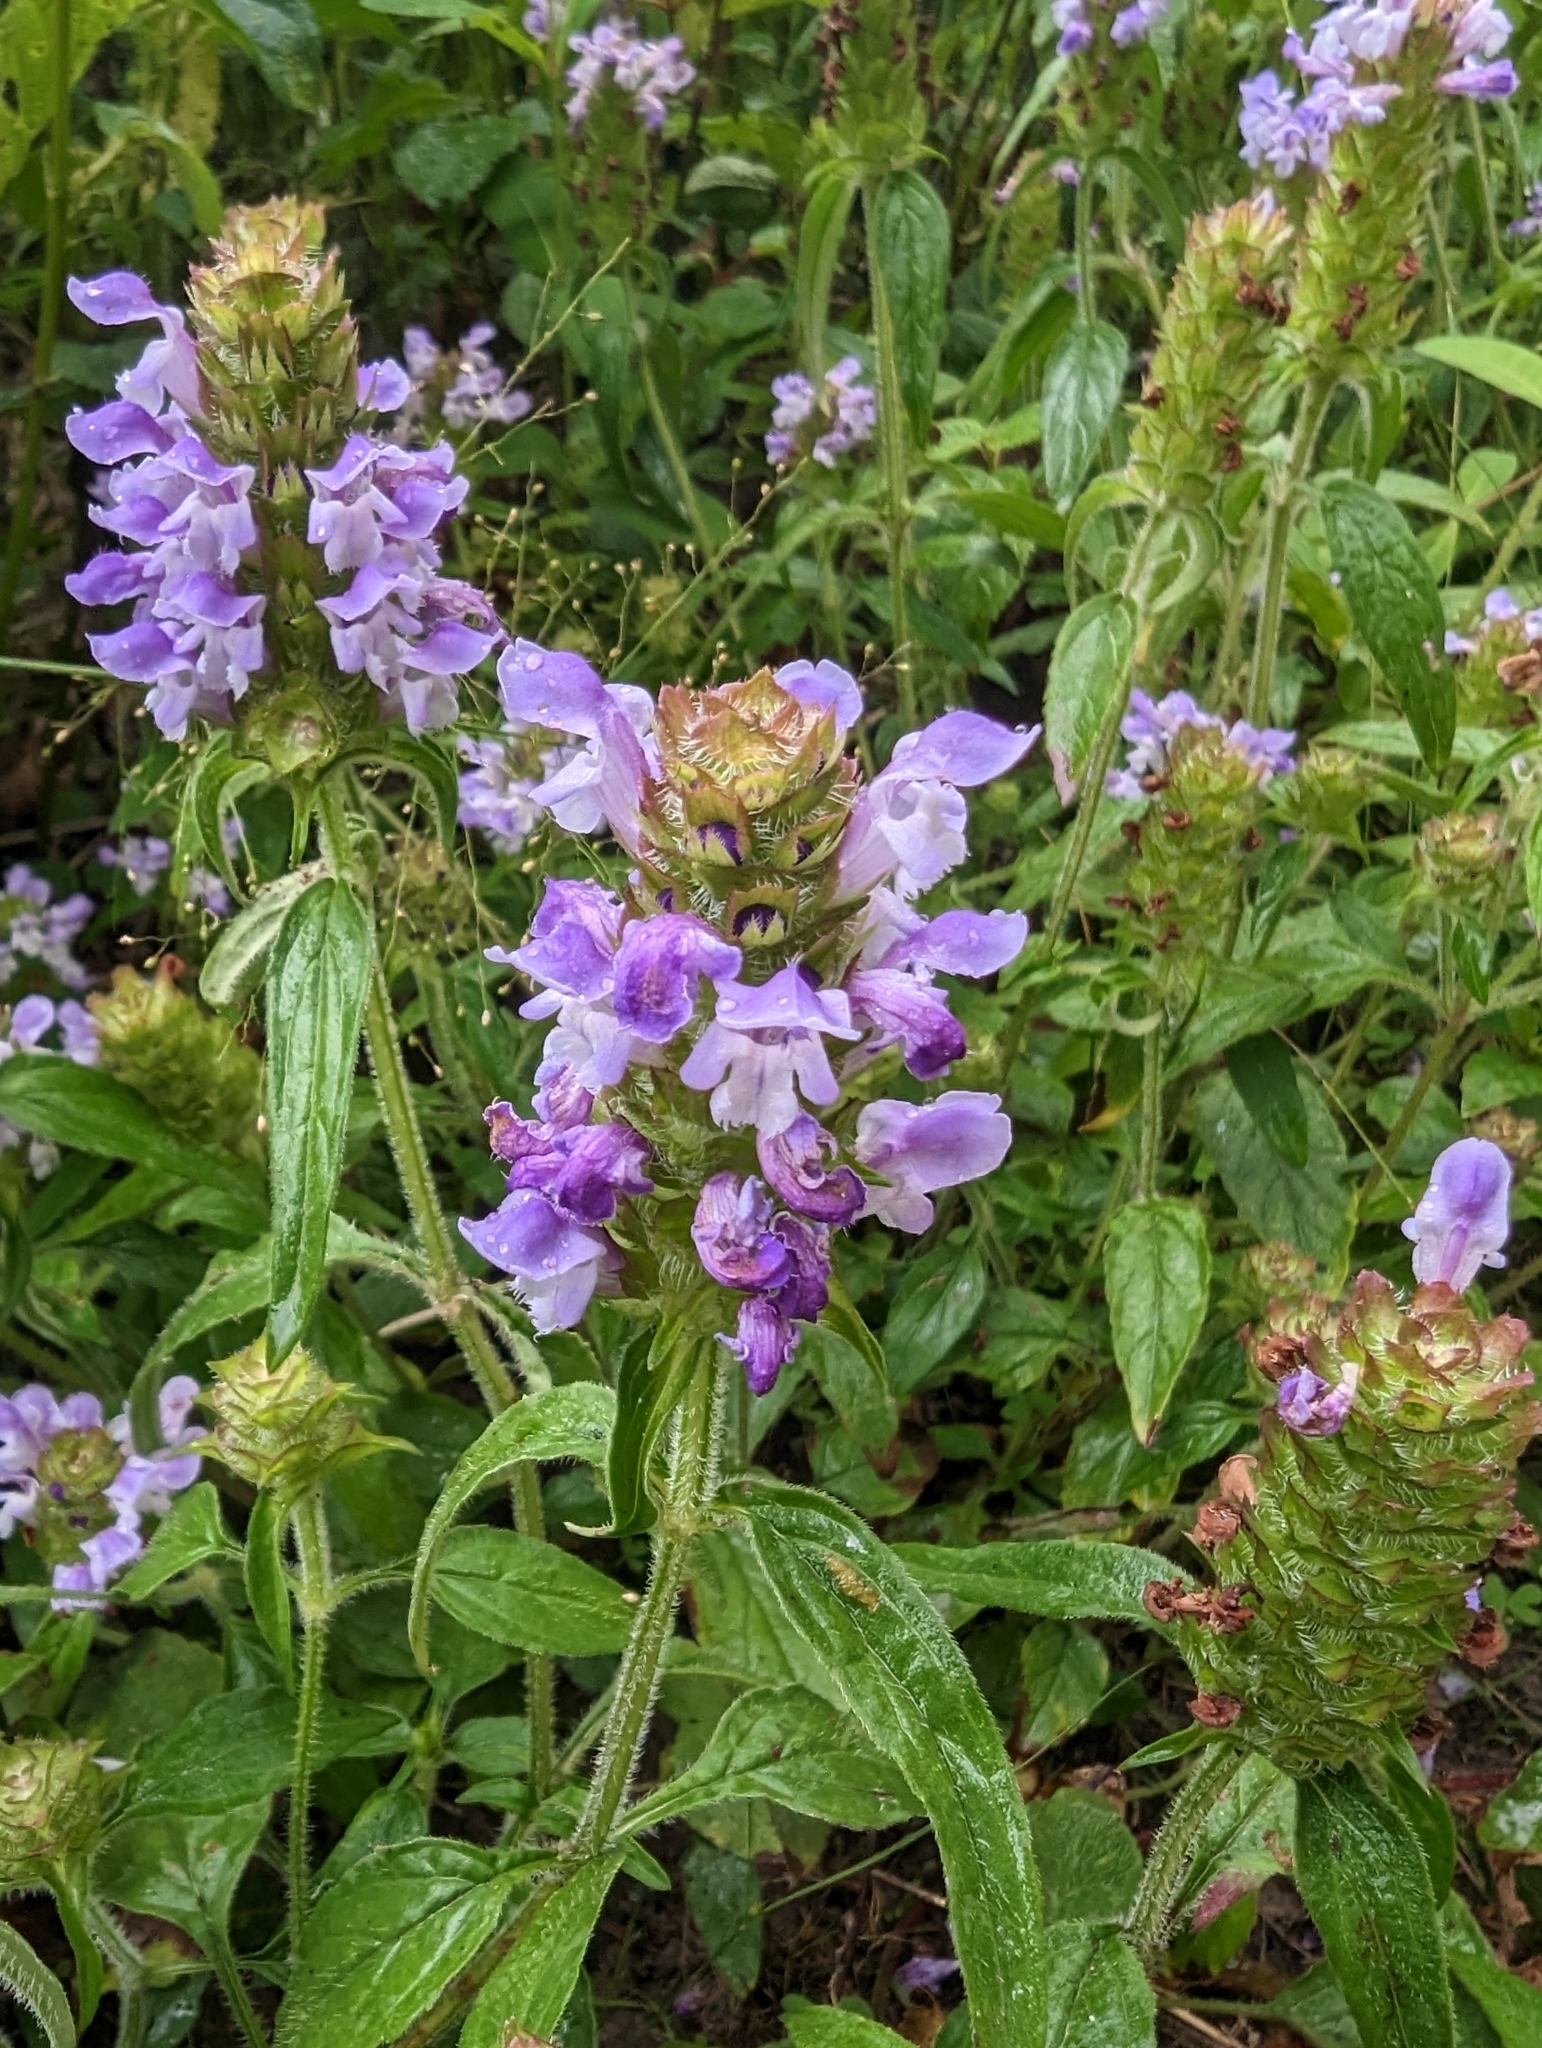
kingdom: Plantae
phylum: Tracheophyta
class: Magnoliopsida
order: Lamiales
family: Lamiaceae
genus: Prunella
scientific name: Prunella vulgaris
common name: Heal-all
